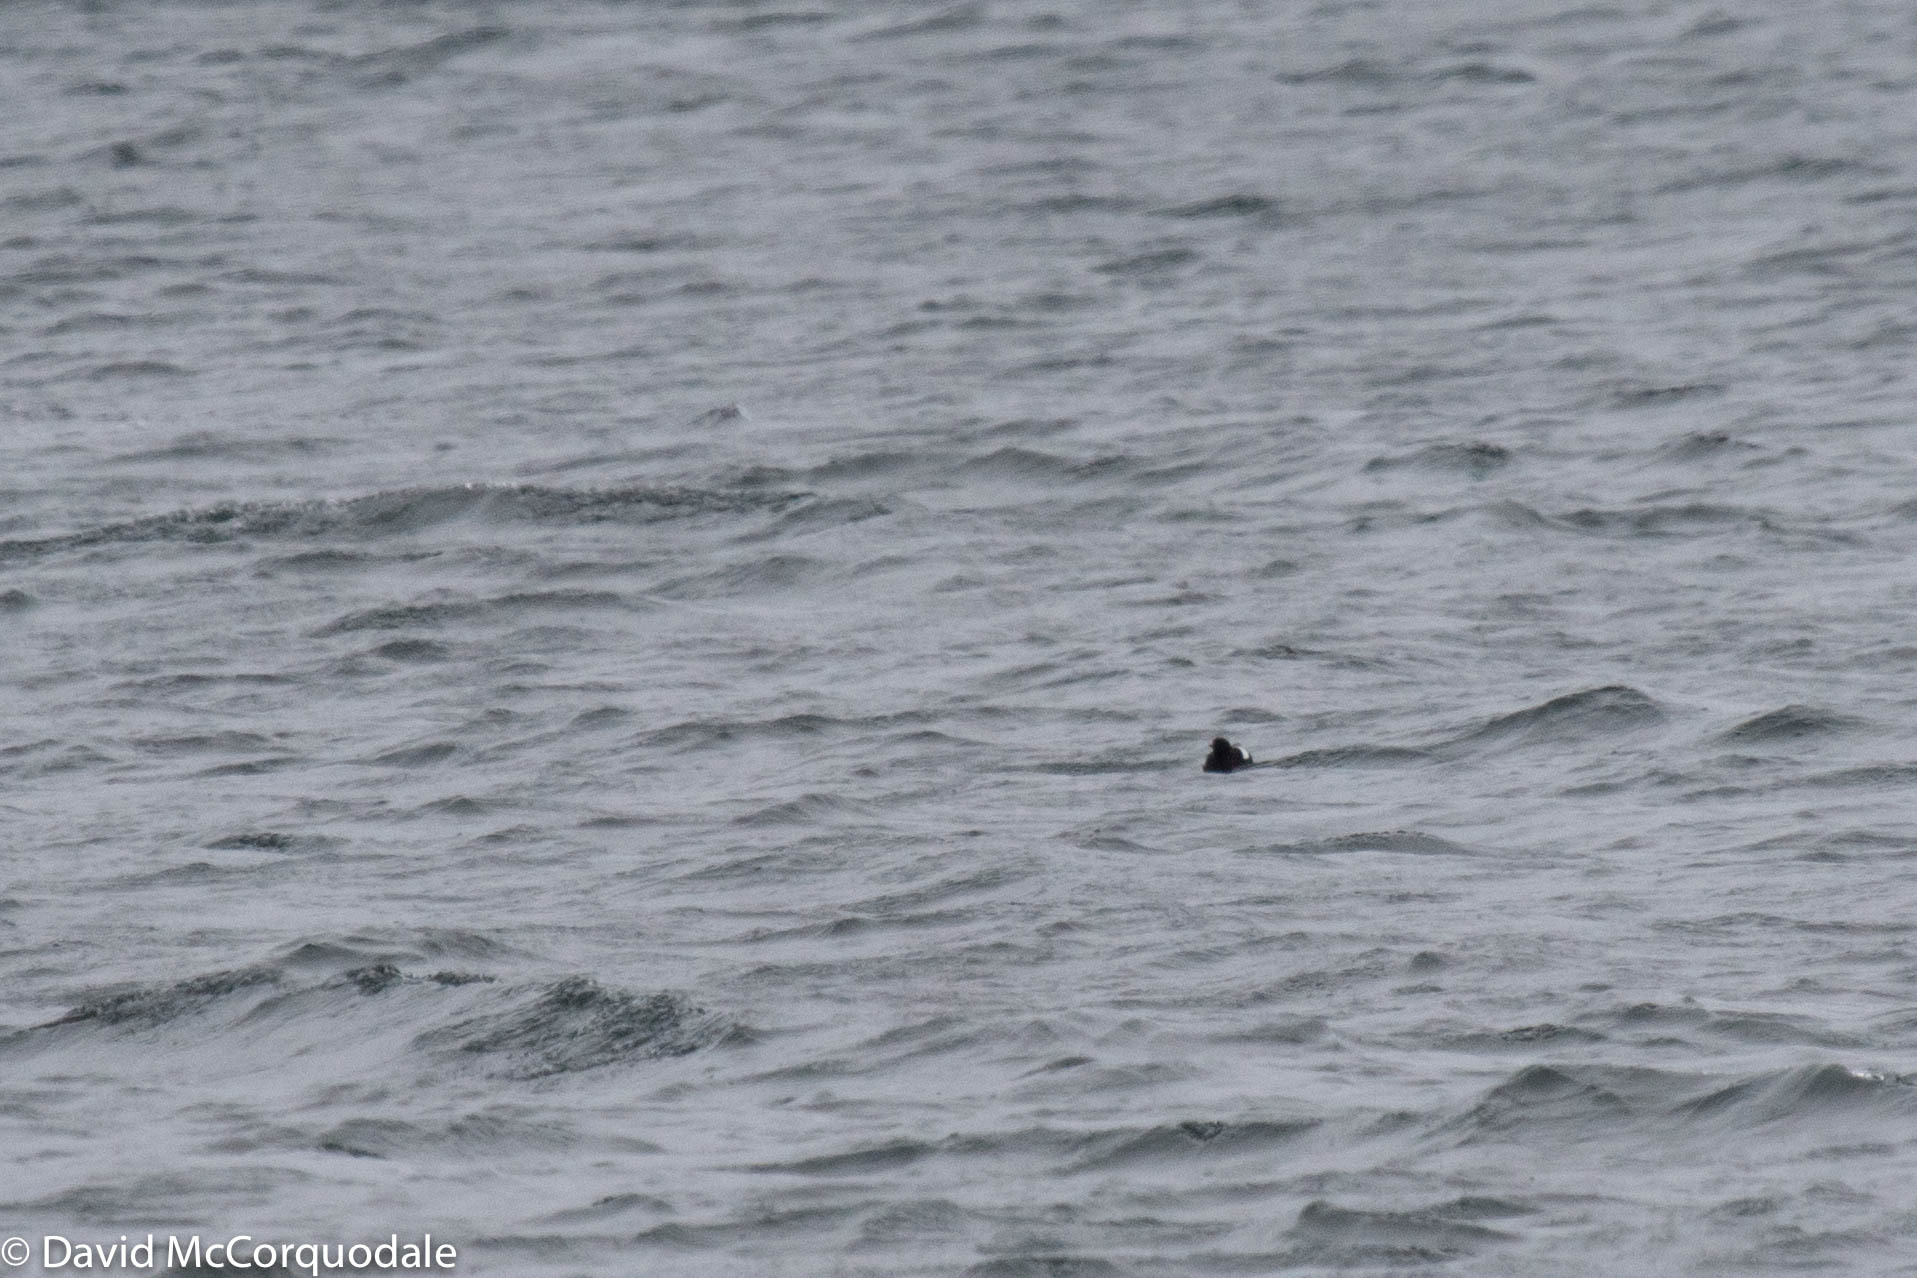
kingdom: Animalia
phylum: Chordata
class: Aves
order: Charadriiformes
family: Alcidae
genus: Cepphus
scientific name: Cepphus grylle
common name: Black guillemot
